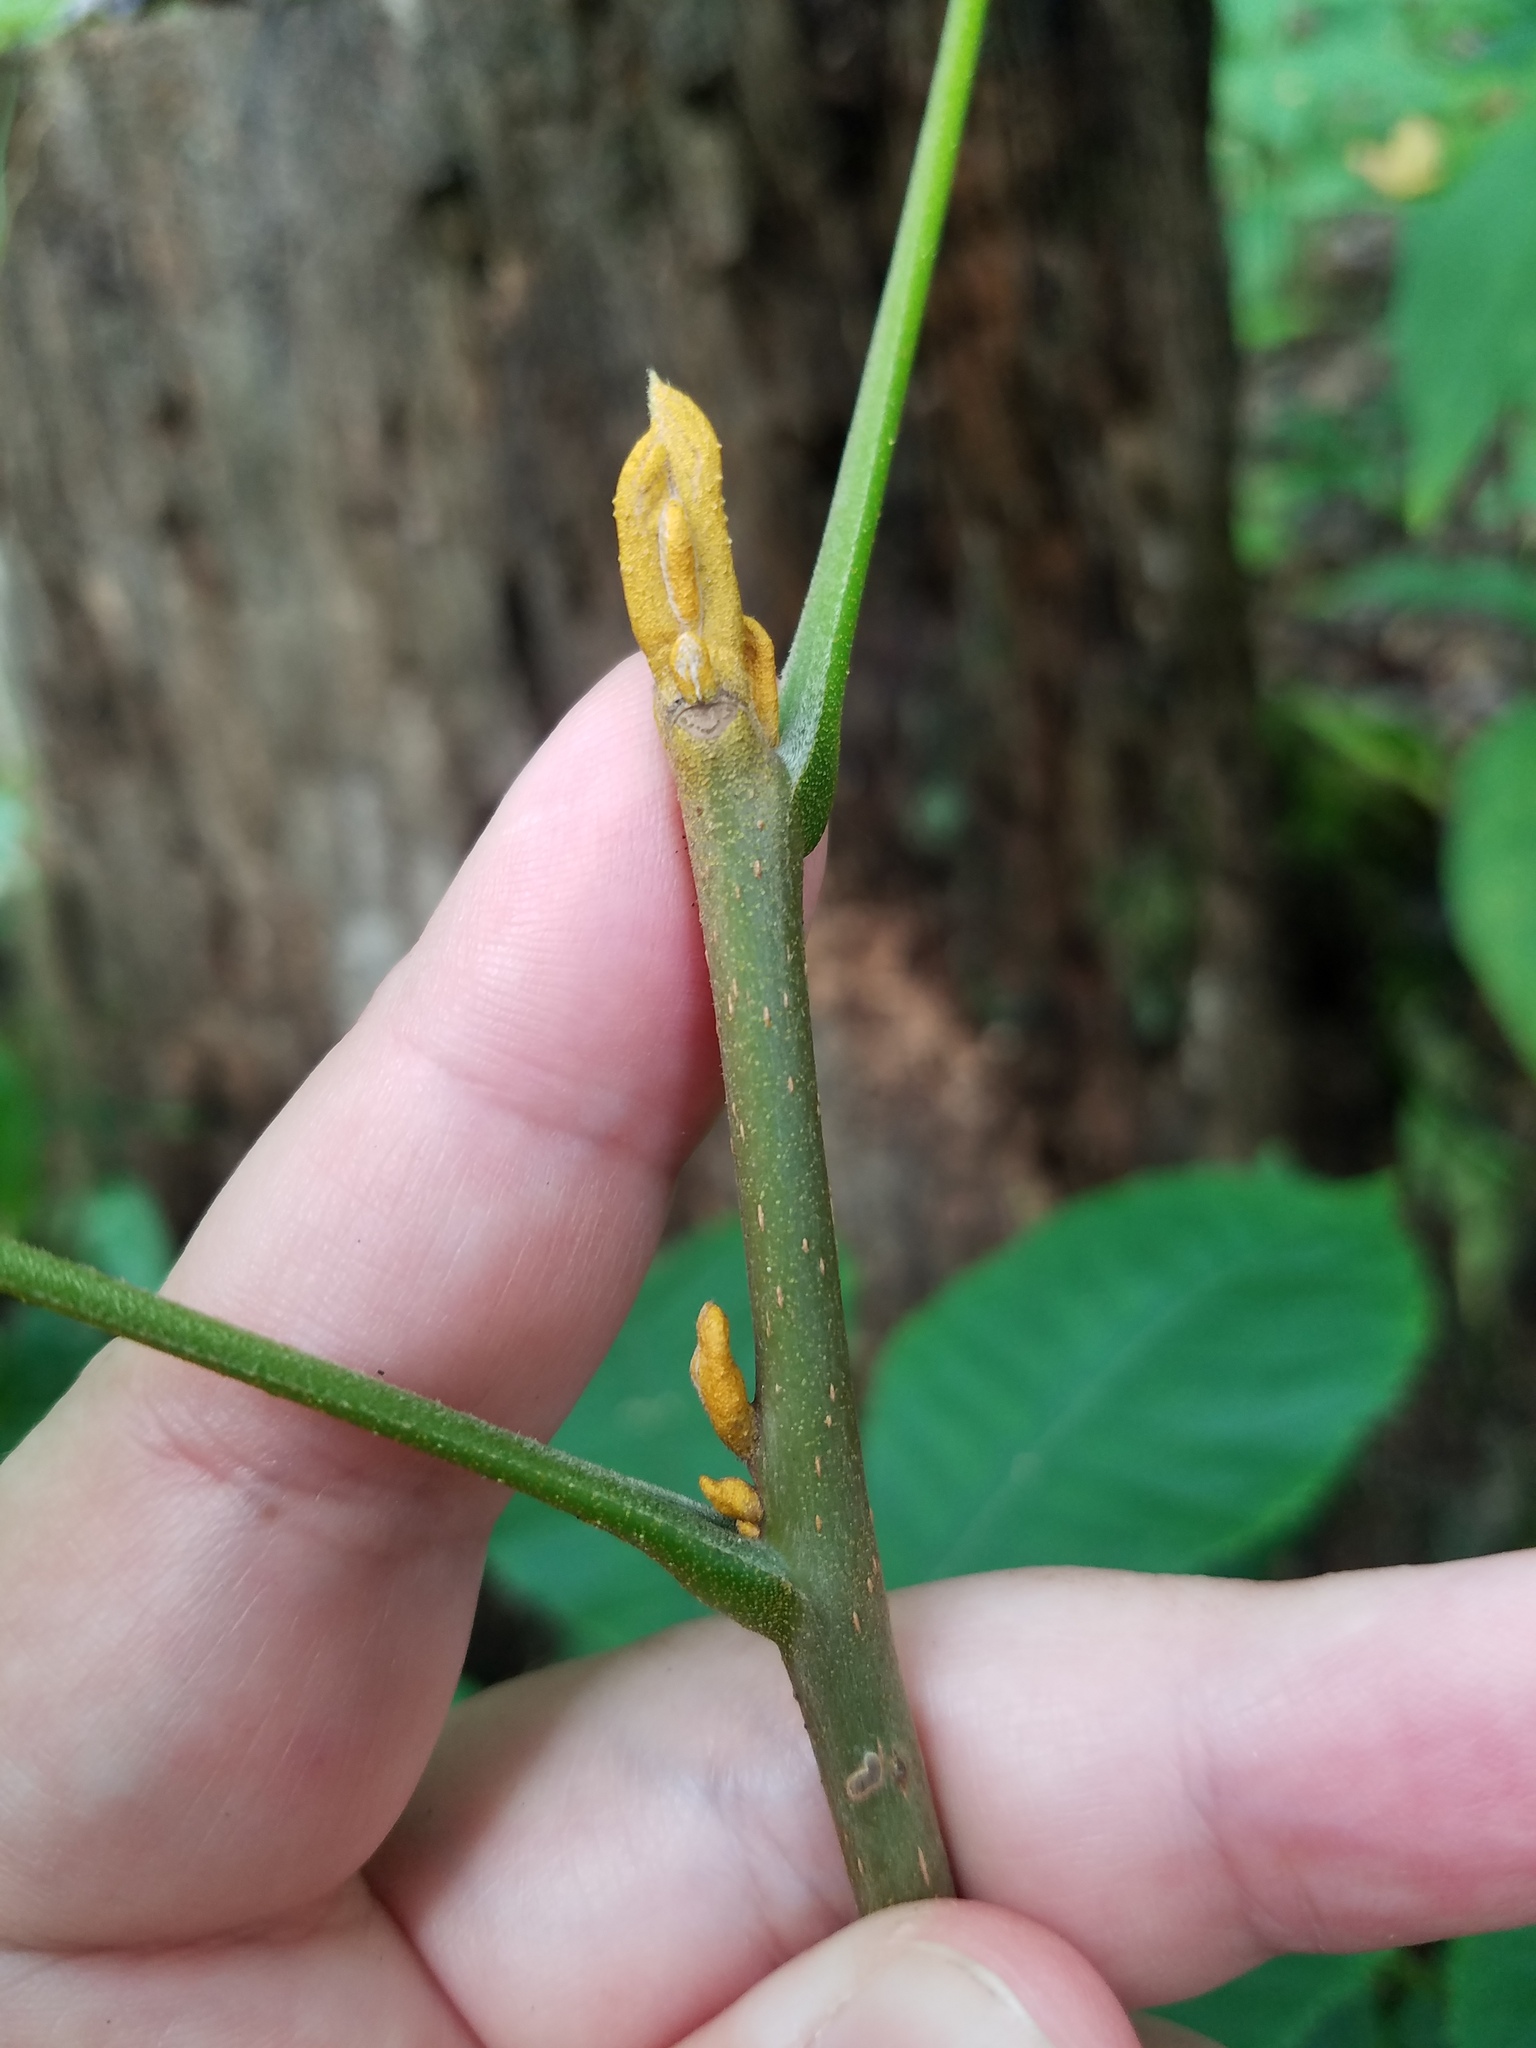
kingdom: Plantae
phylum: Tracheophyta
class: Magnoliopsida
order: Fagales
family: Juglandaceae
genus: Carya
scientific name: Carya cordiformis
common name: Bitternut hickory
